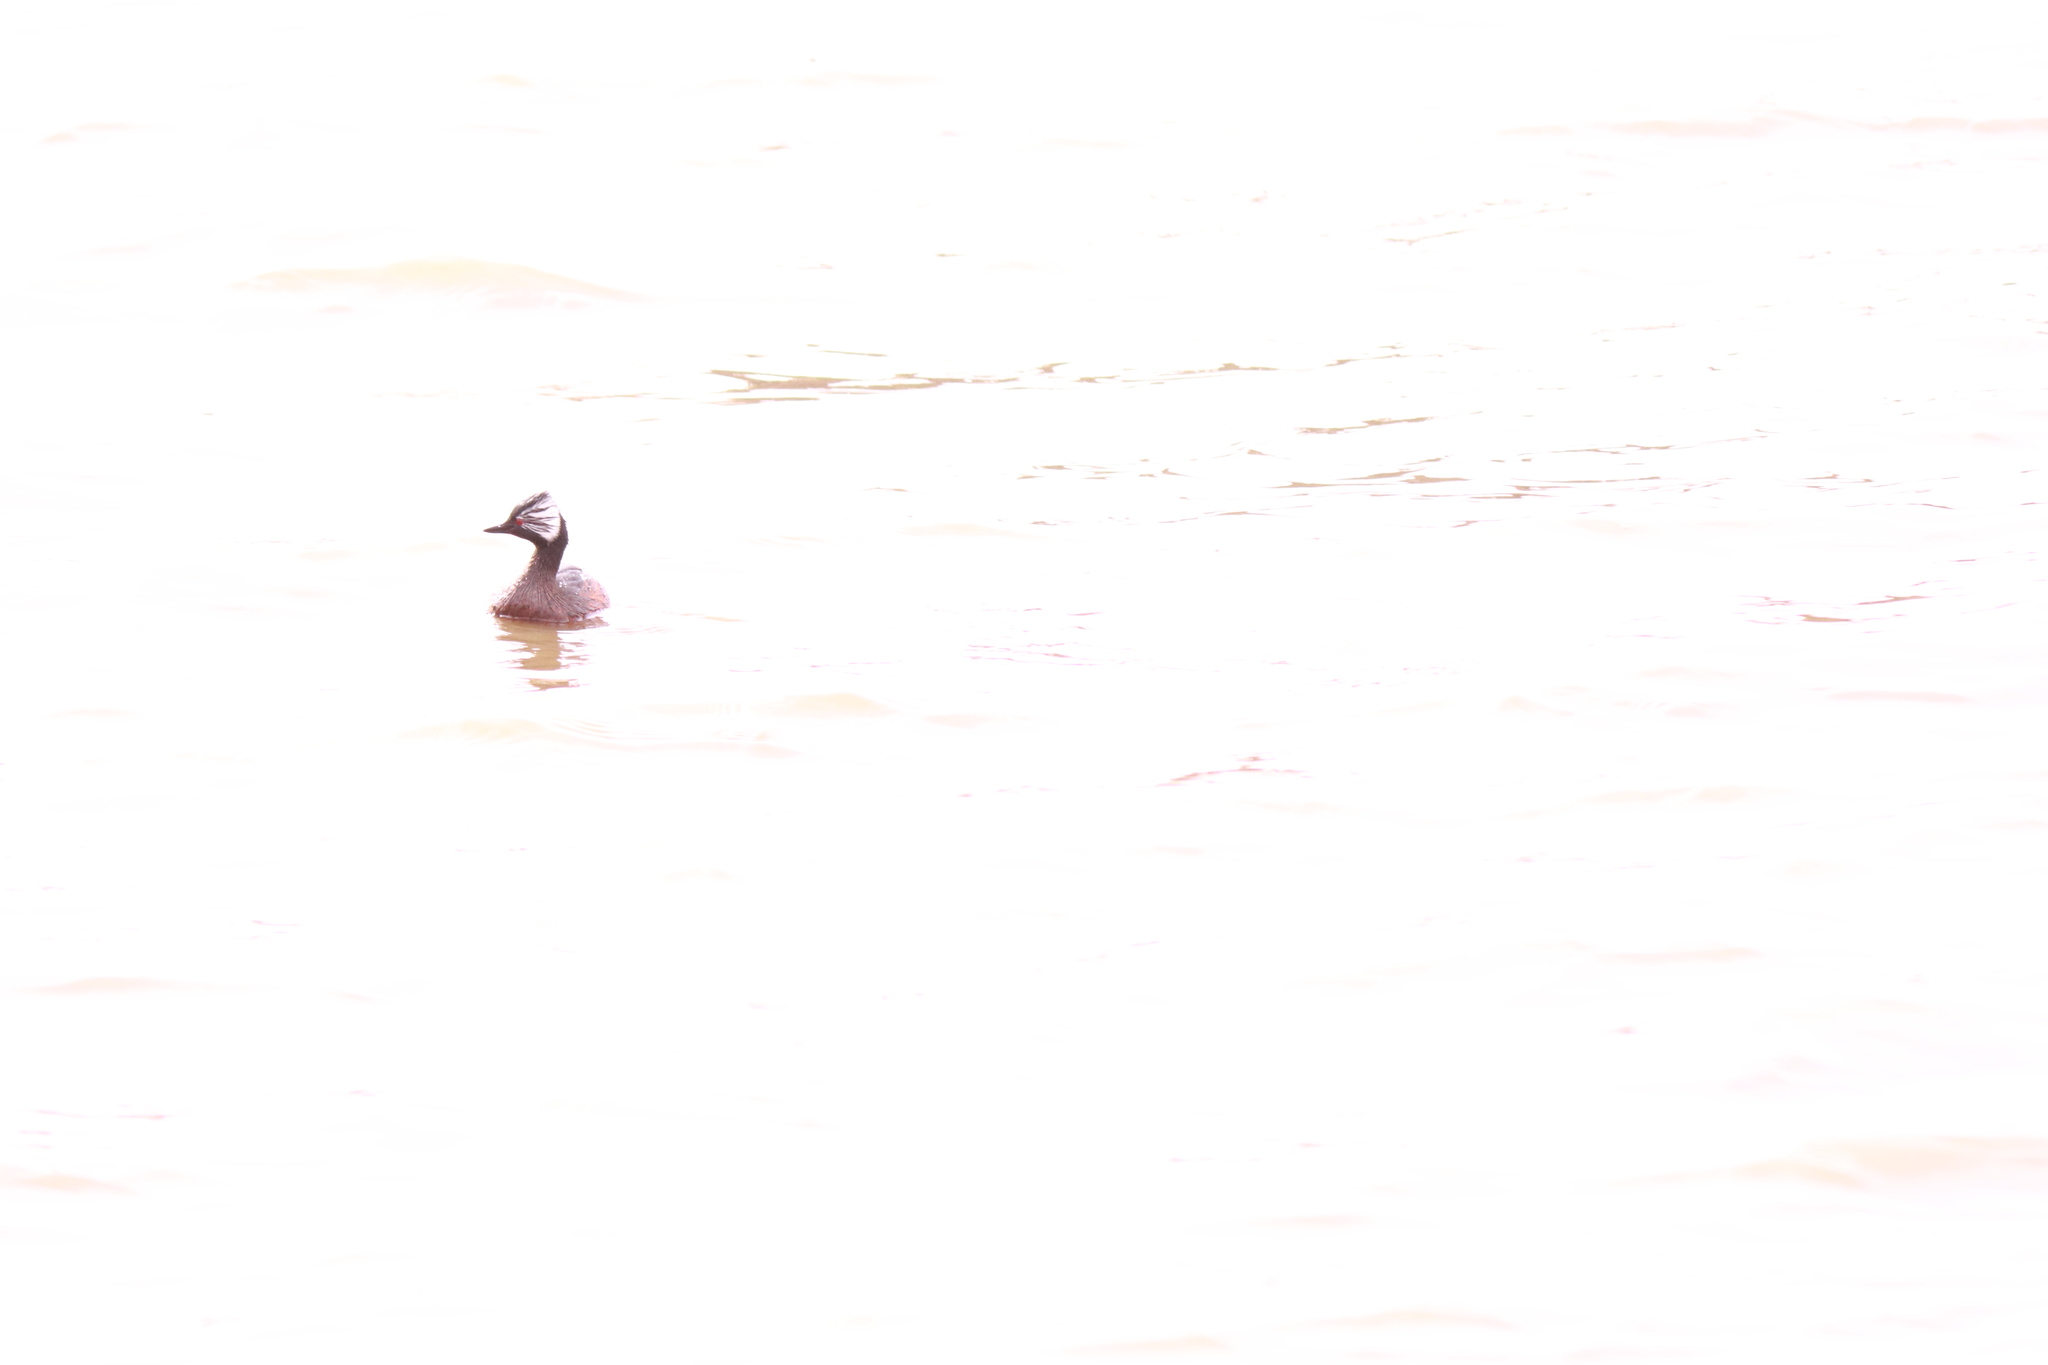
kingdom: Animalia
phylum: Chordata
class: Aves
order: Podicipediformes
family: Podicipedidae
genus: Rollandia
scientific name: Rollandia rolland
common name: White-tufted grebe
